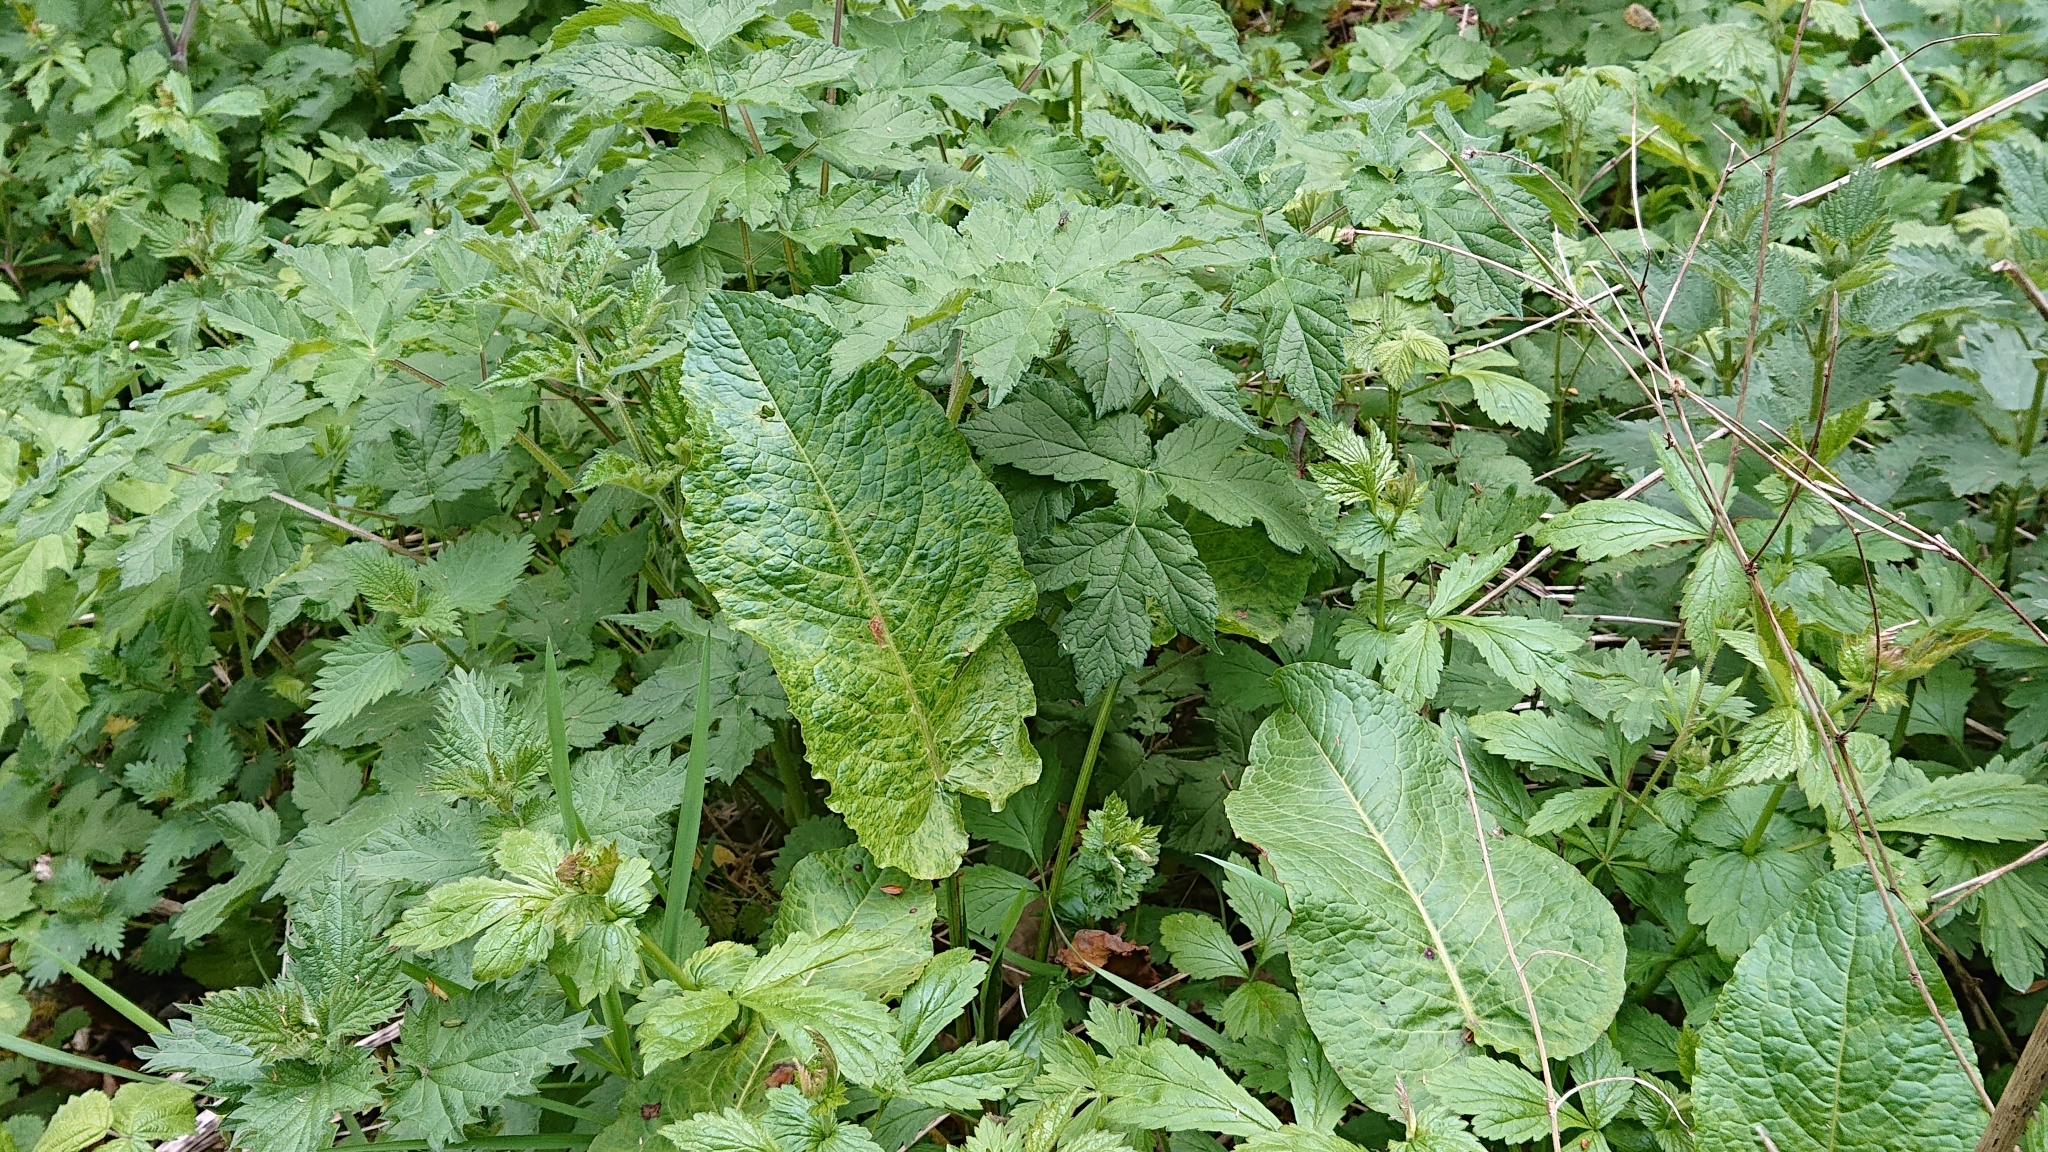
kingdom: Plantae
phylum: Tracheophyta
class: Magnoliopsida
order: Caryophyllales
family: Polygonaceae
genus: Rumex
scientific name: Rumex obtusifolius
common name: Bitter dock
